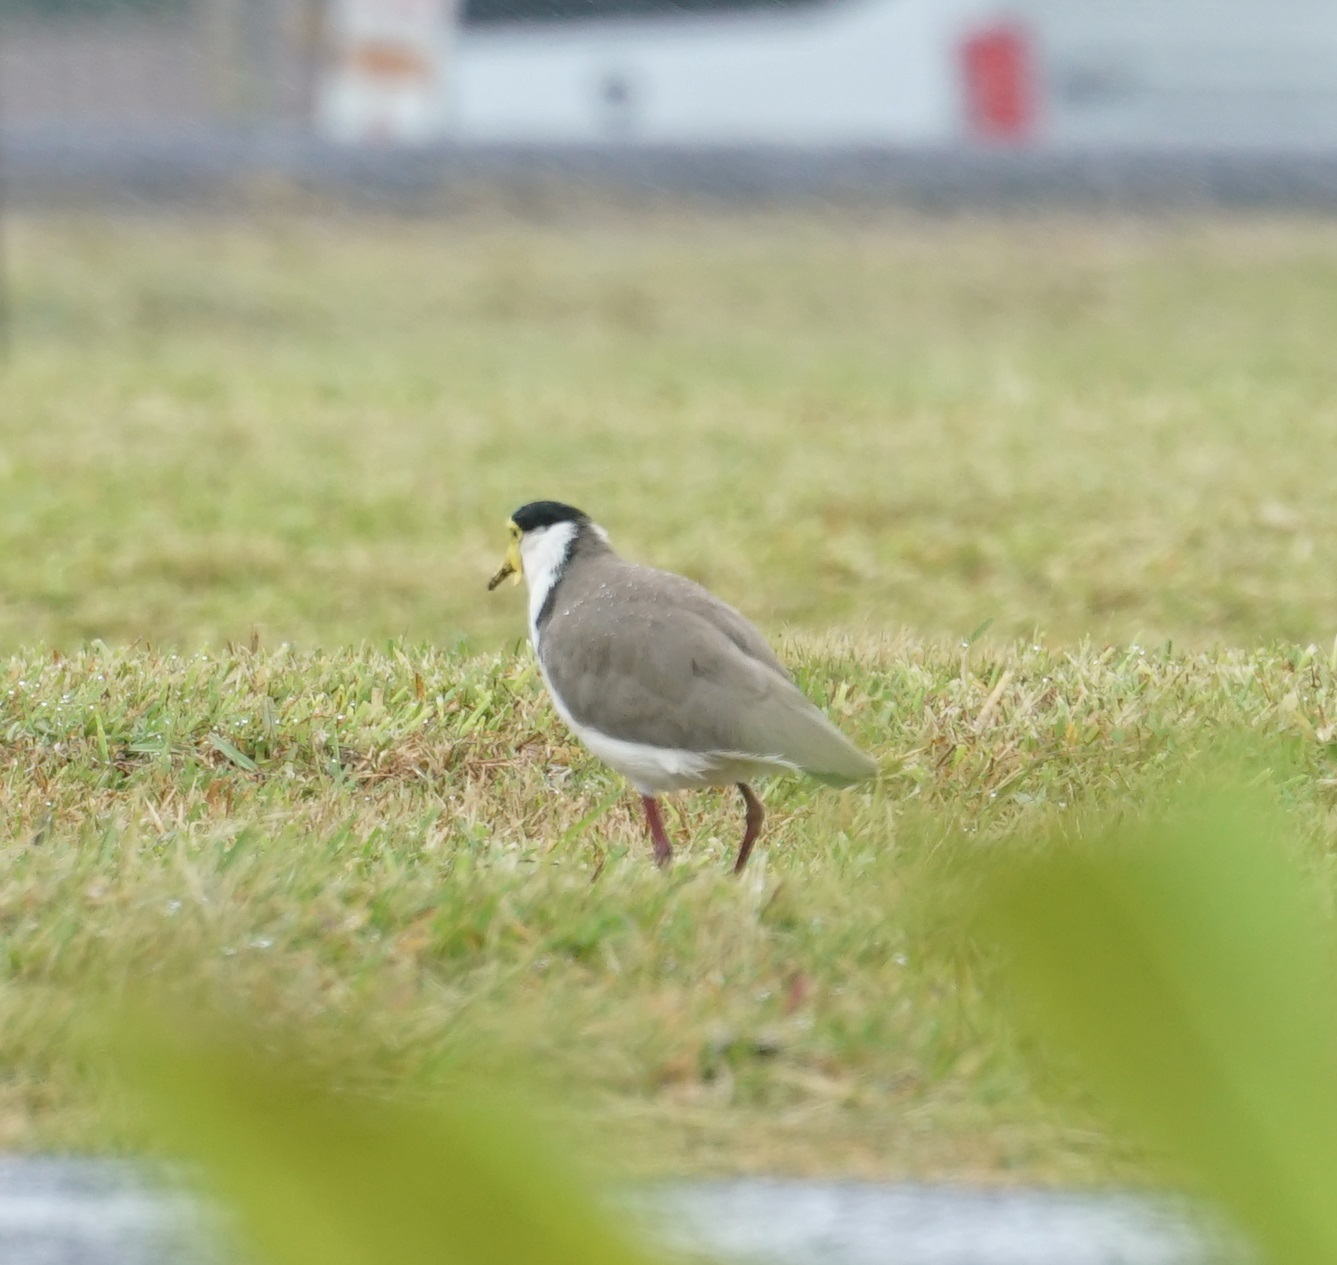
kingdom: Animalia
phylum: Chordata
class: Aves
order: Charadriiformes
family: Charadriidae
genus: Vanellus
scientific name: Vanellus miles
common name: Masked lapwing
